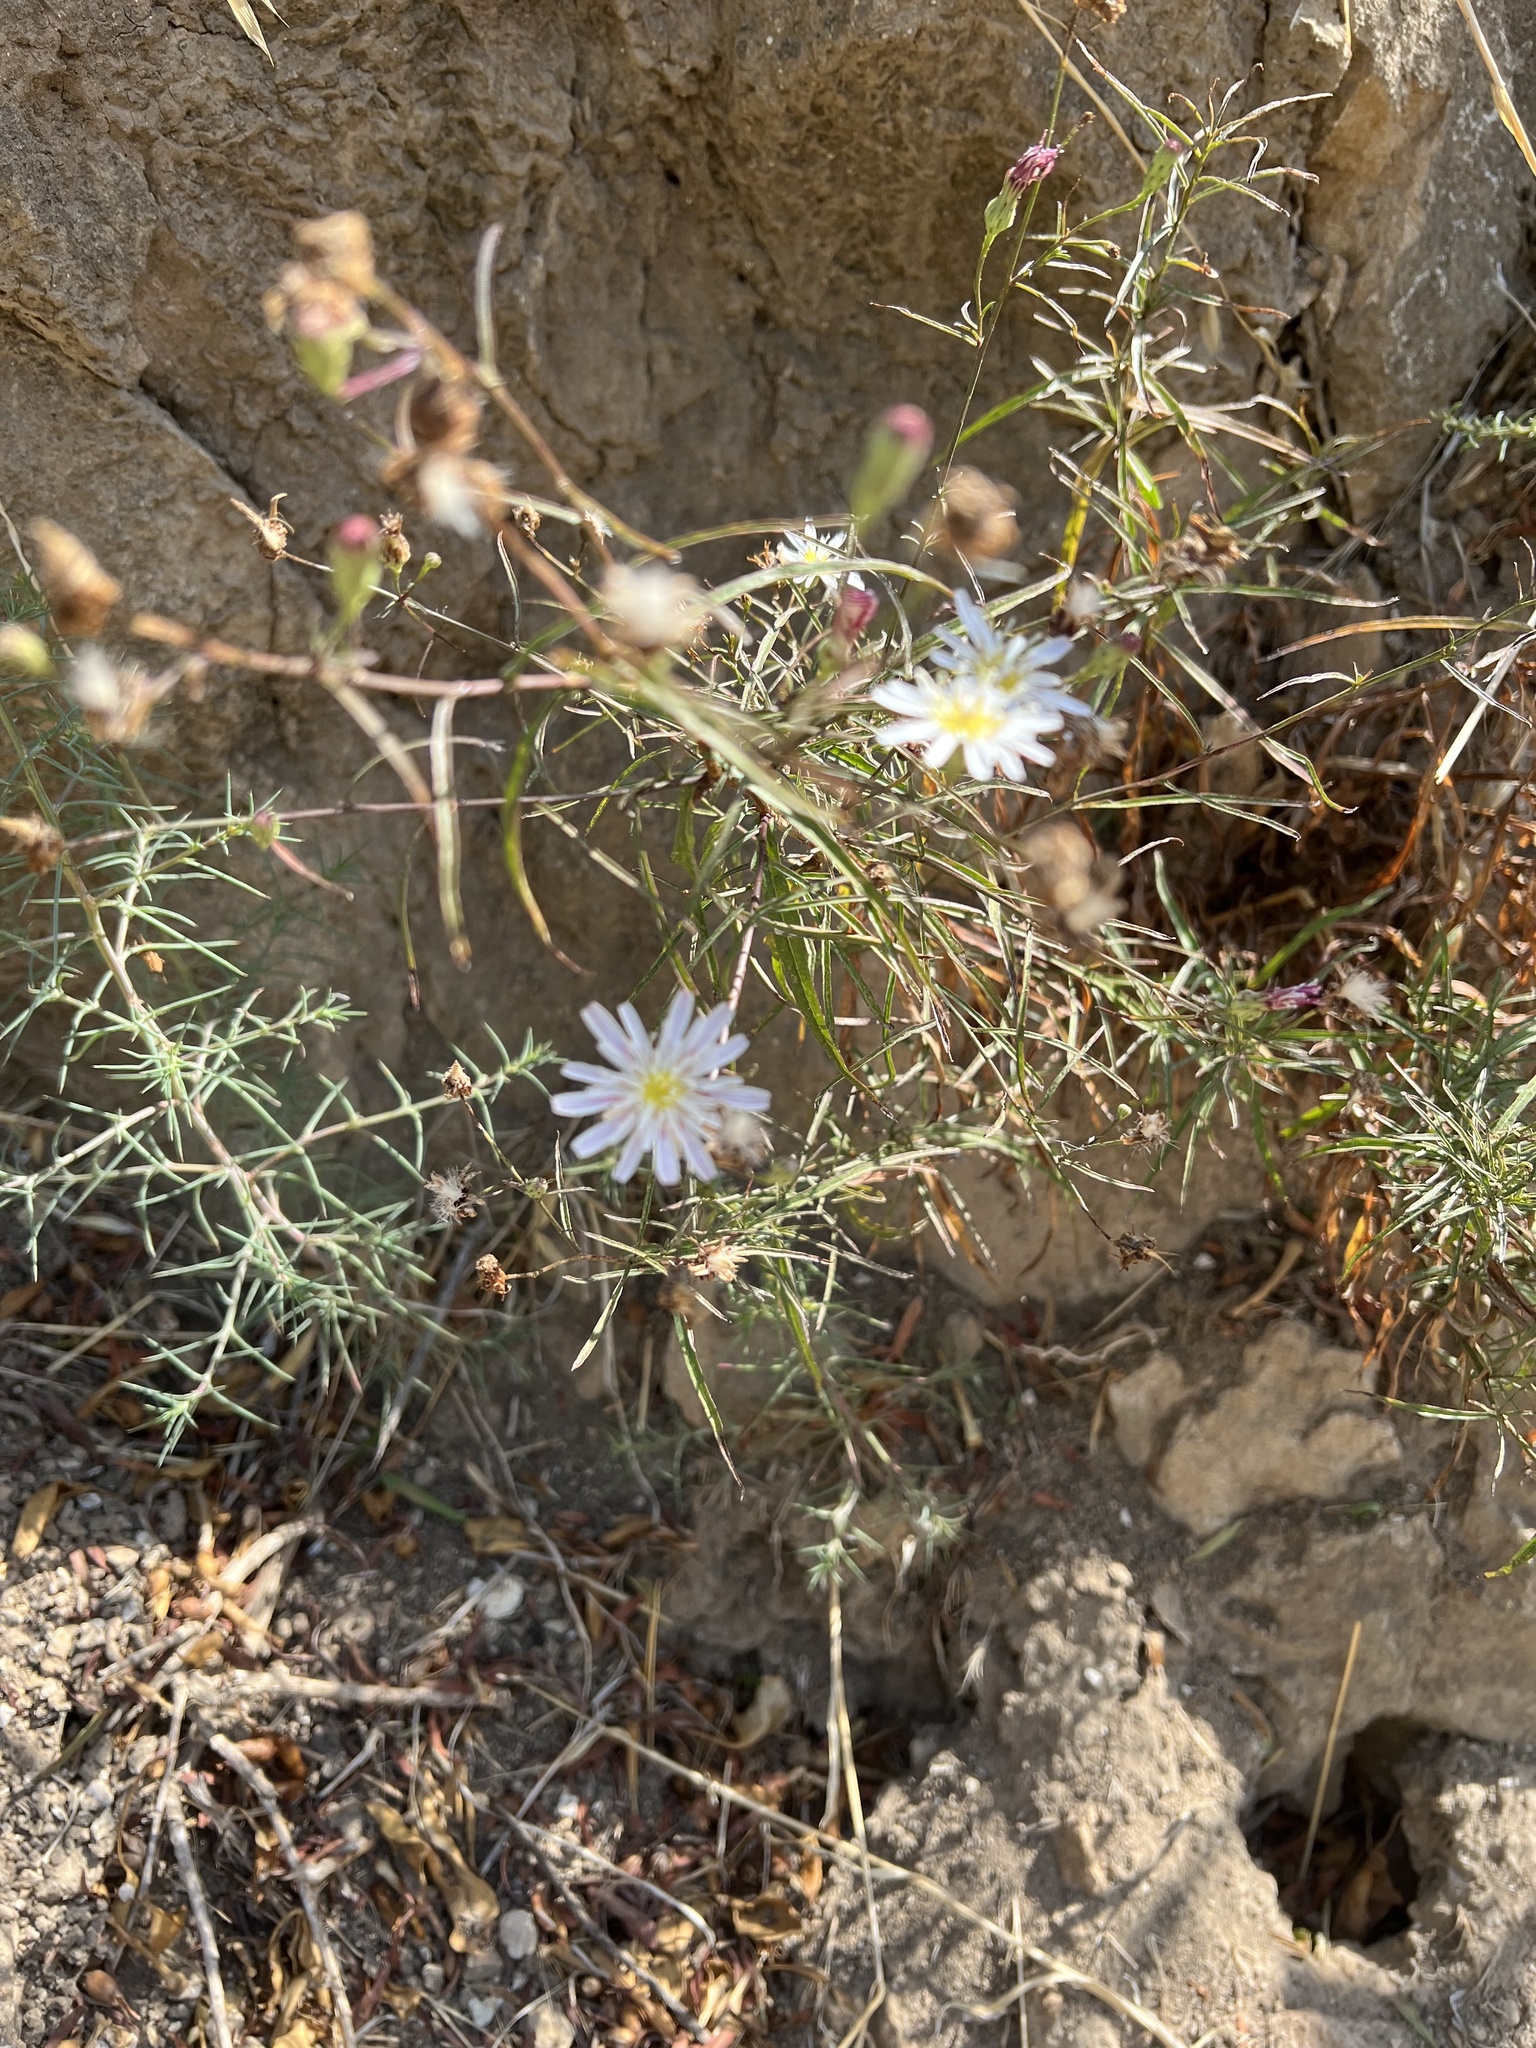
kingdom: Plantae
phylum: Tracheophyta
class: Magnoliopsida
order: Asterales
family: Asteraceae
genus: Malacothrix
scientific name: Malacothrix saxatilis
